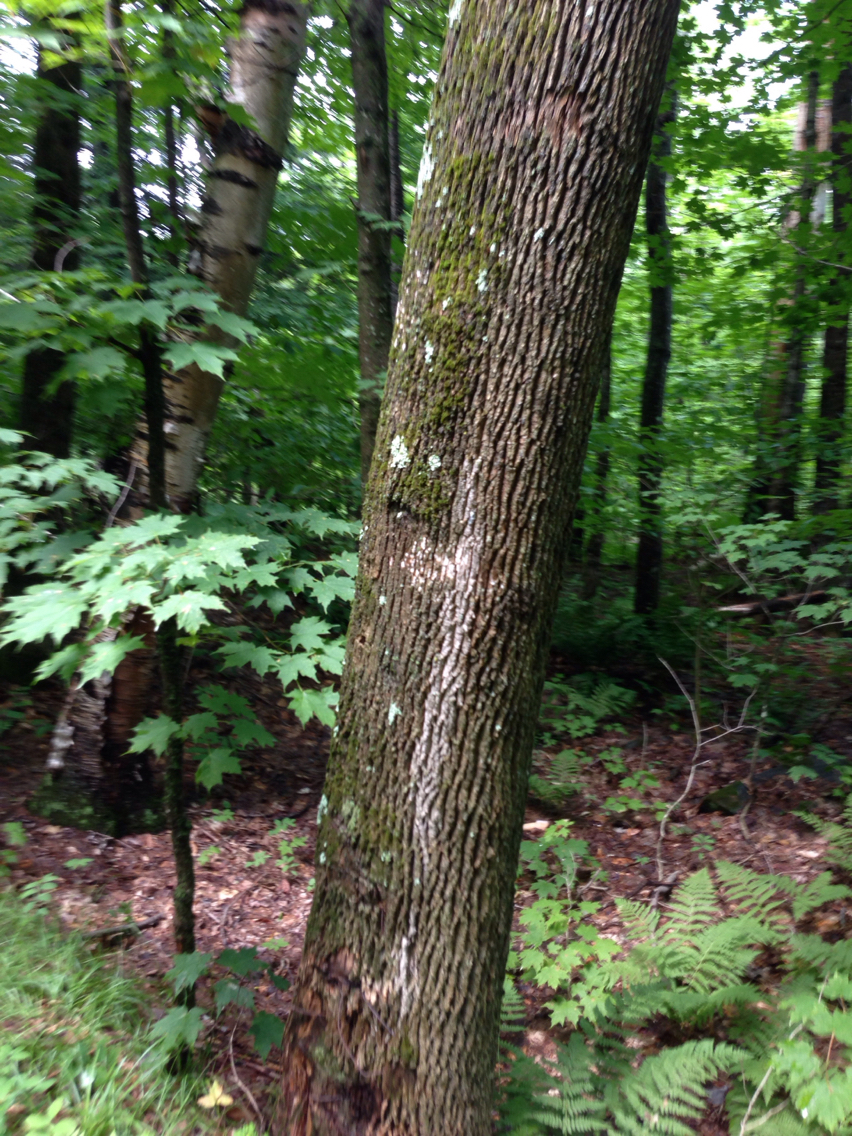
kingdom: Plantae
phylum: Tracheophyta
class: Magnoliopsida
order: Lamiales
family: Oleaceae
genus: Fraxinus
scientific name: Fraxinus americana
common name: White ash
